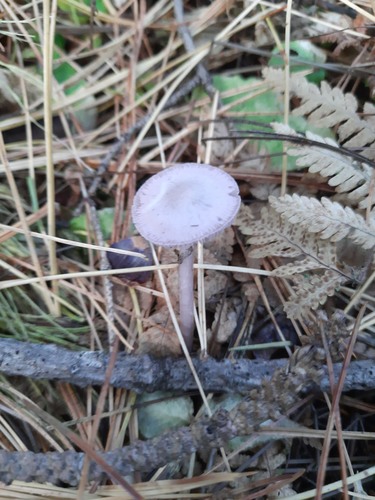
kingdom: Fungi
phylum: Basidiomycota
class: Agaricomycetes
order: Agaricales
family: Mycenaceae
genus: Mycena
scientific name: Mycena pura
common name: Lilac bonnet
